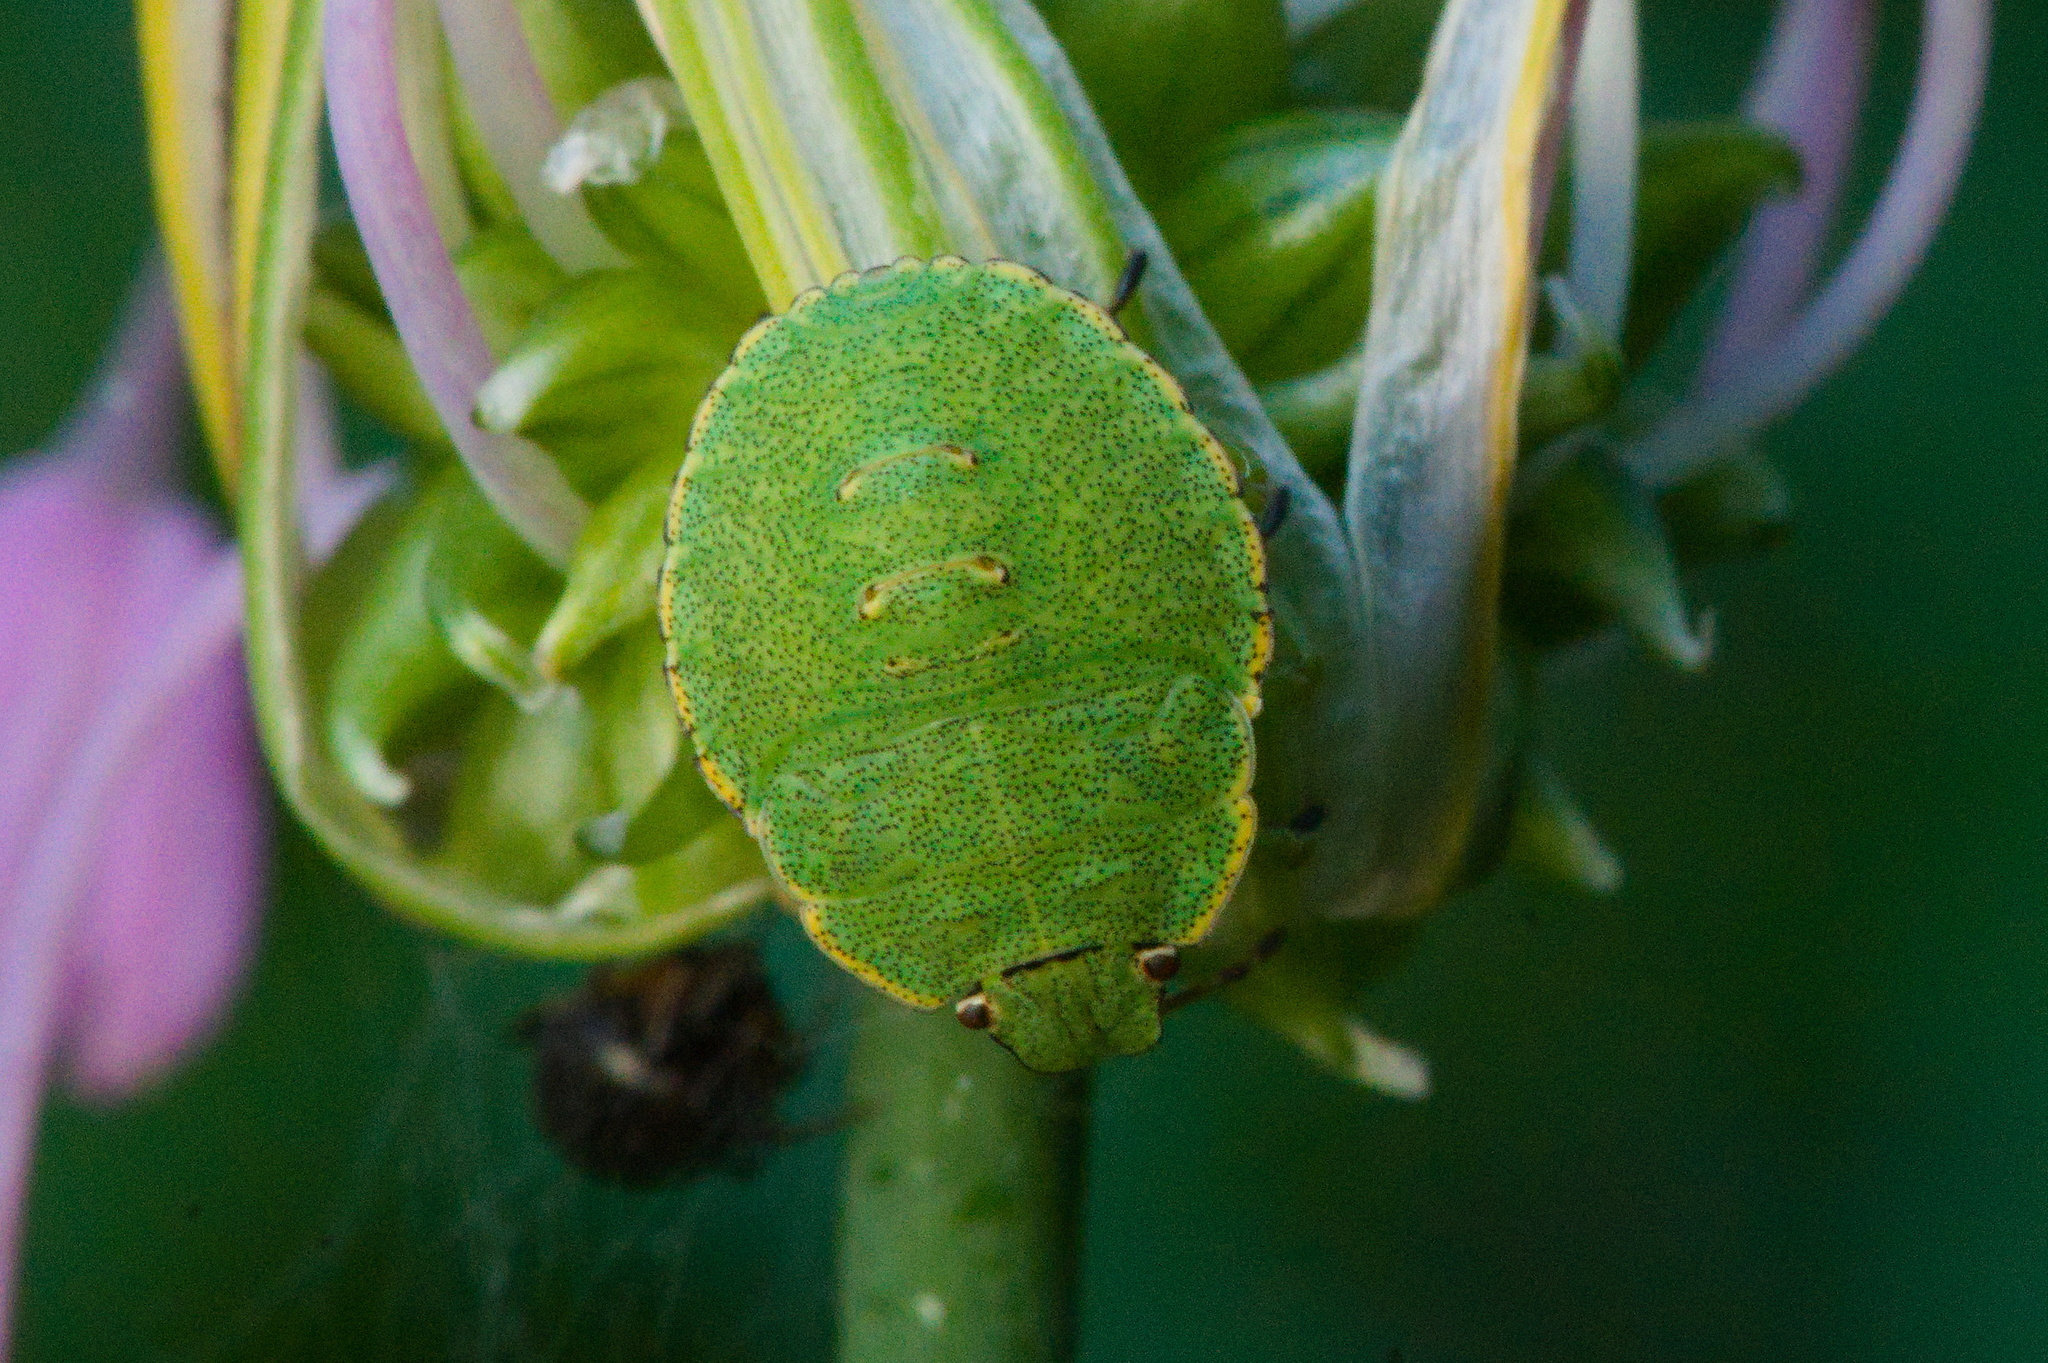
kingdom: Animalia
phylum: Arthropoda
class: Insecta
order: Hemiptera
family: Pentatomidae
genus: Palomena
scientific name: Palomena prasina
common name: Green shieldbug
